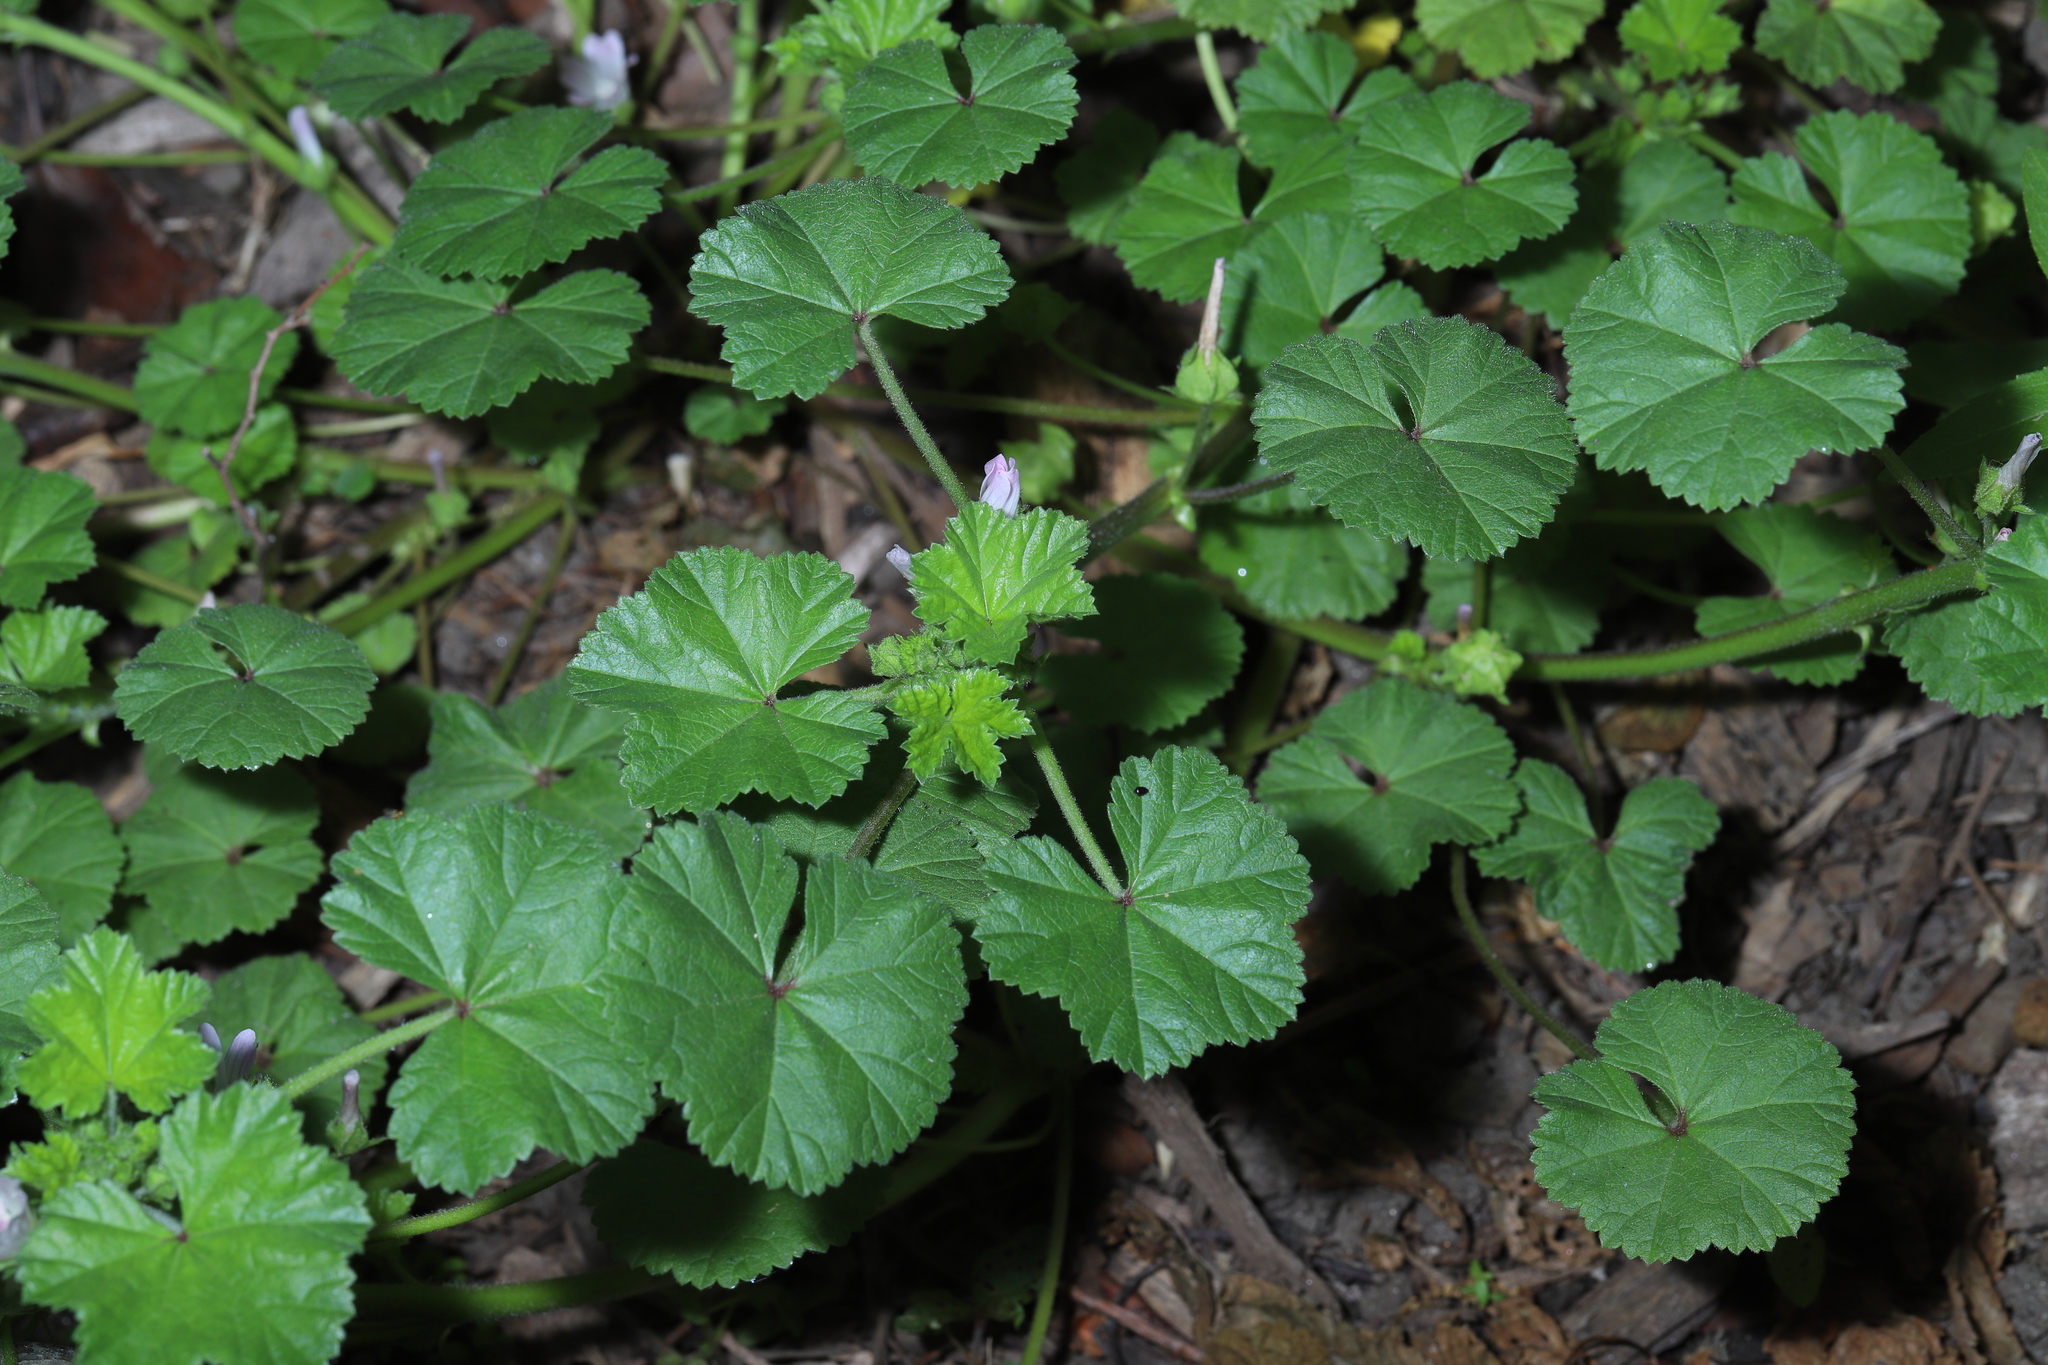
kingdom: Plantae
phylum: Tracheophyta
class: Magnoliopsida
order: Malvales
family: Malvaceae
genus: Malva
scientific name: Malva neglecta
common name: Common mallow
